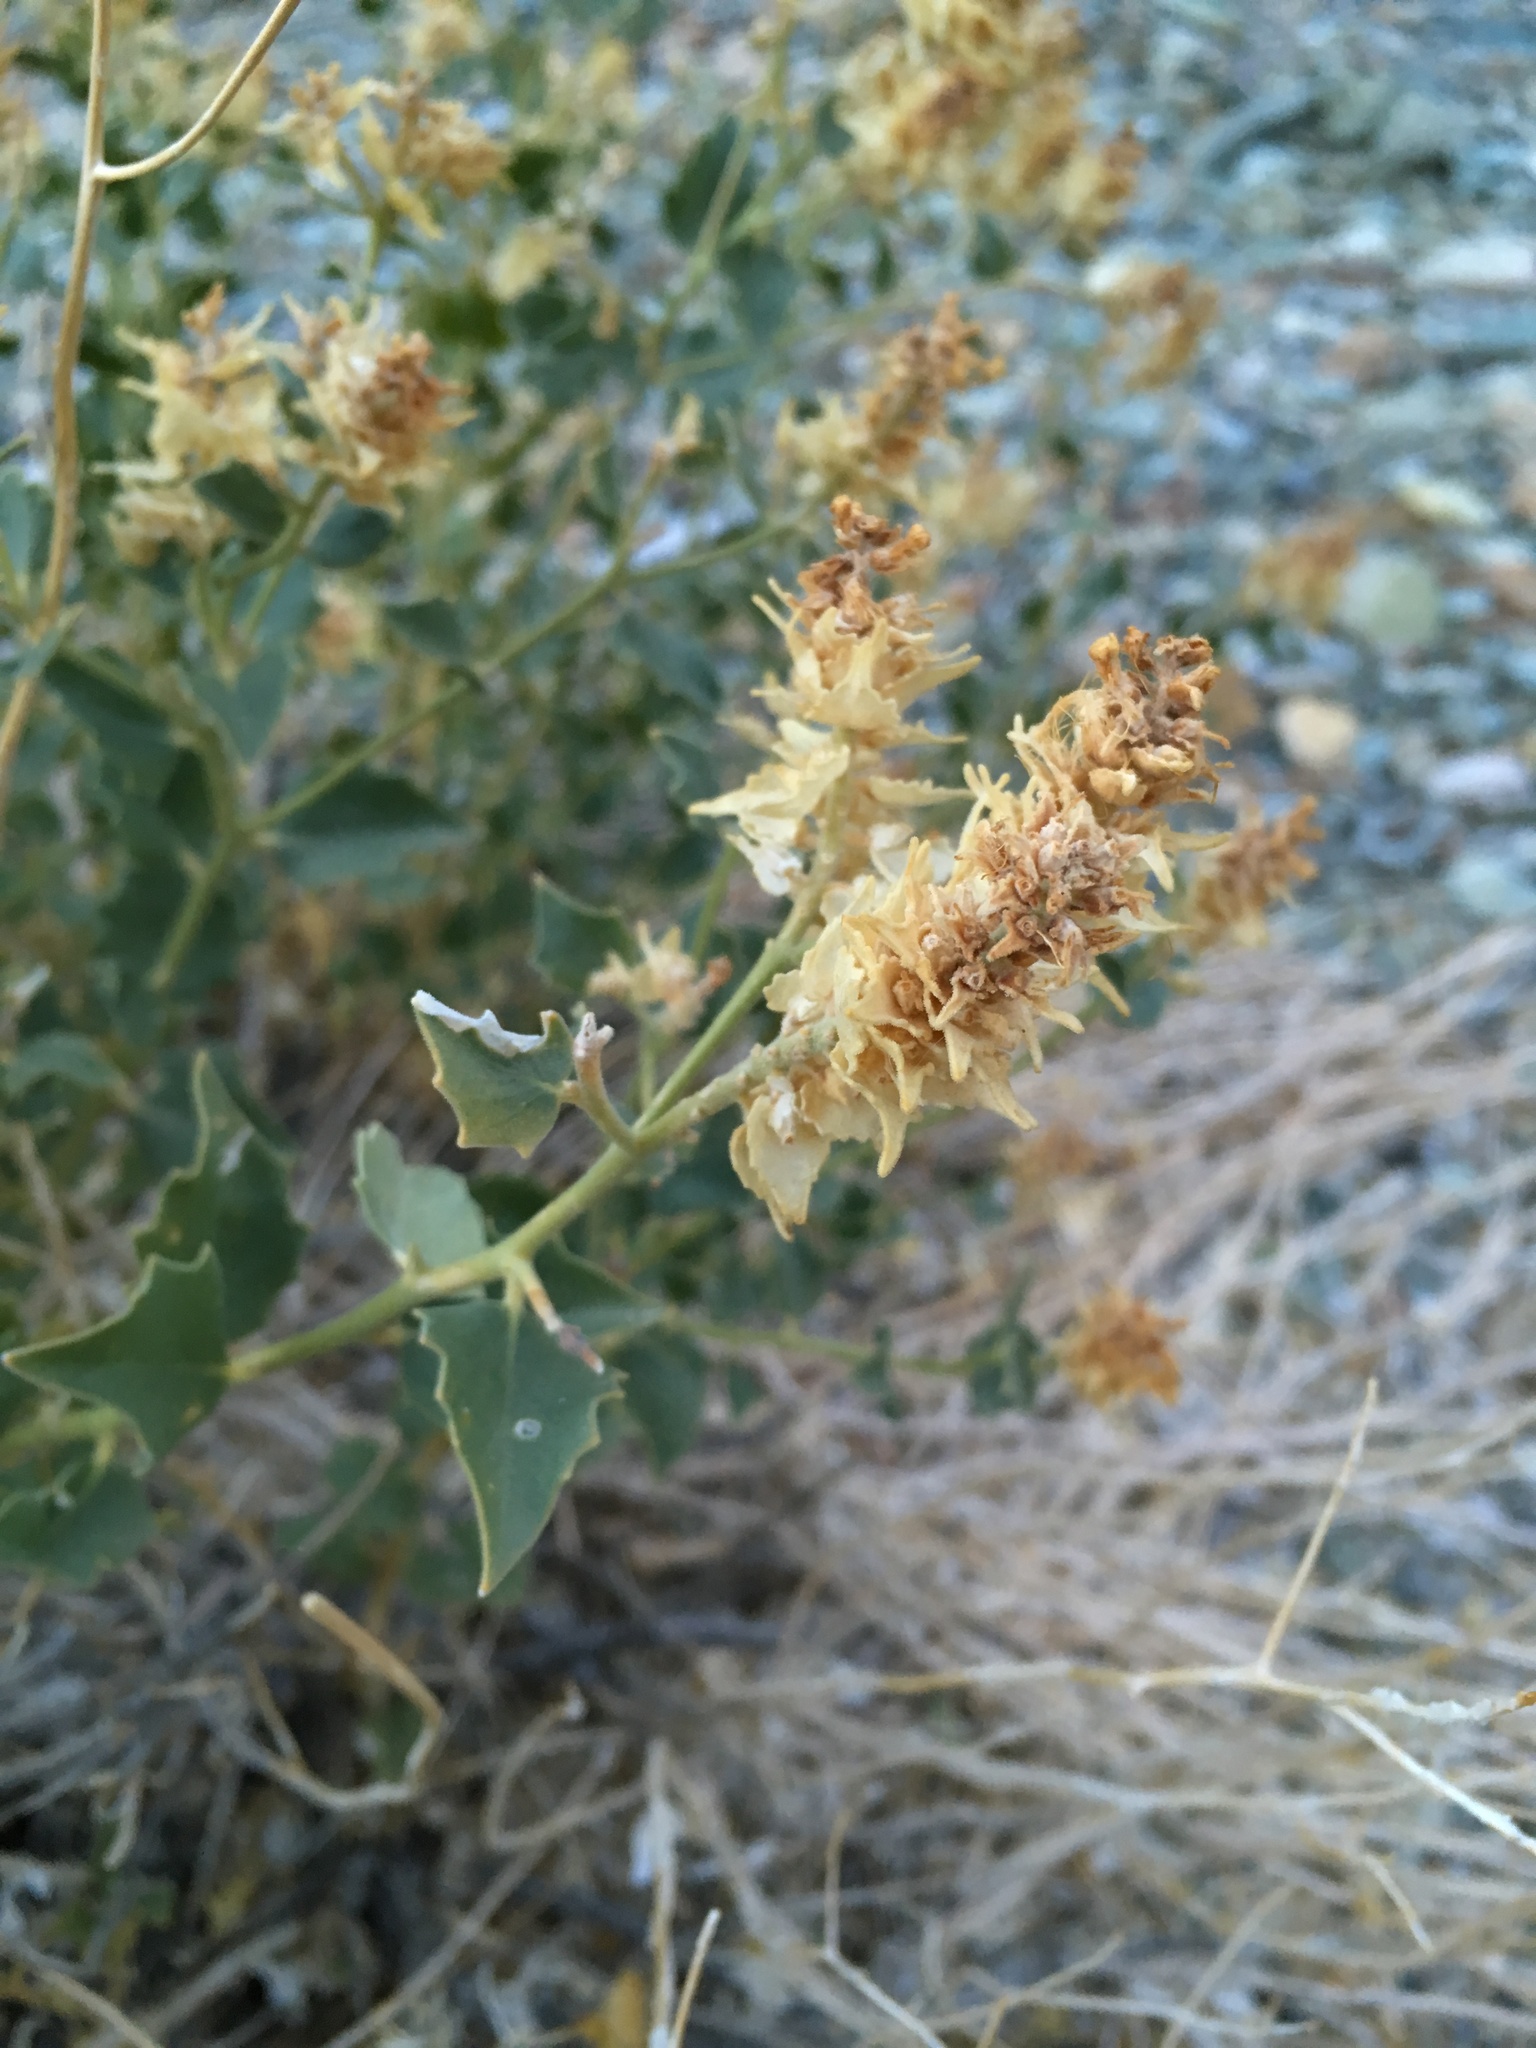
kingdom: Plantae
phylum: Tracheophyta
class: Magnoliopsida
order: Cornales
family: Loasaceae
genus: Petalonyx
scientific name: Petalonyx nitidus
